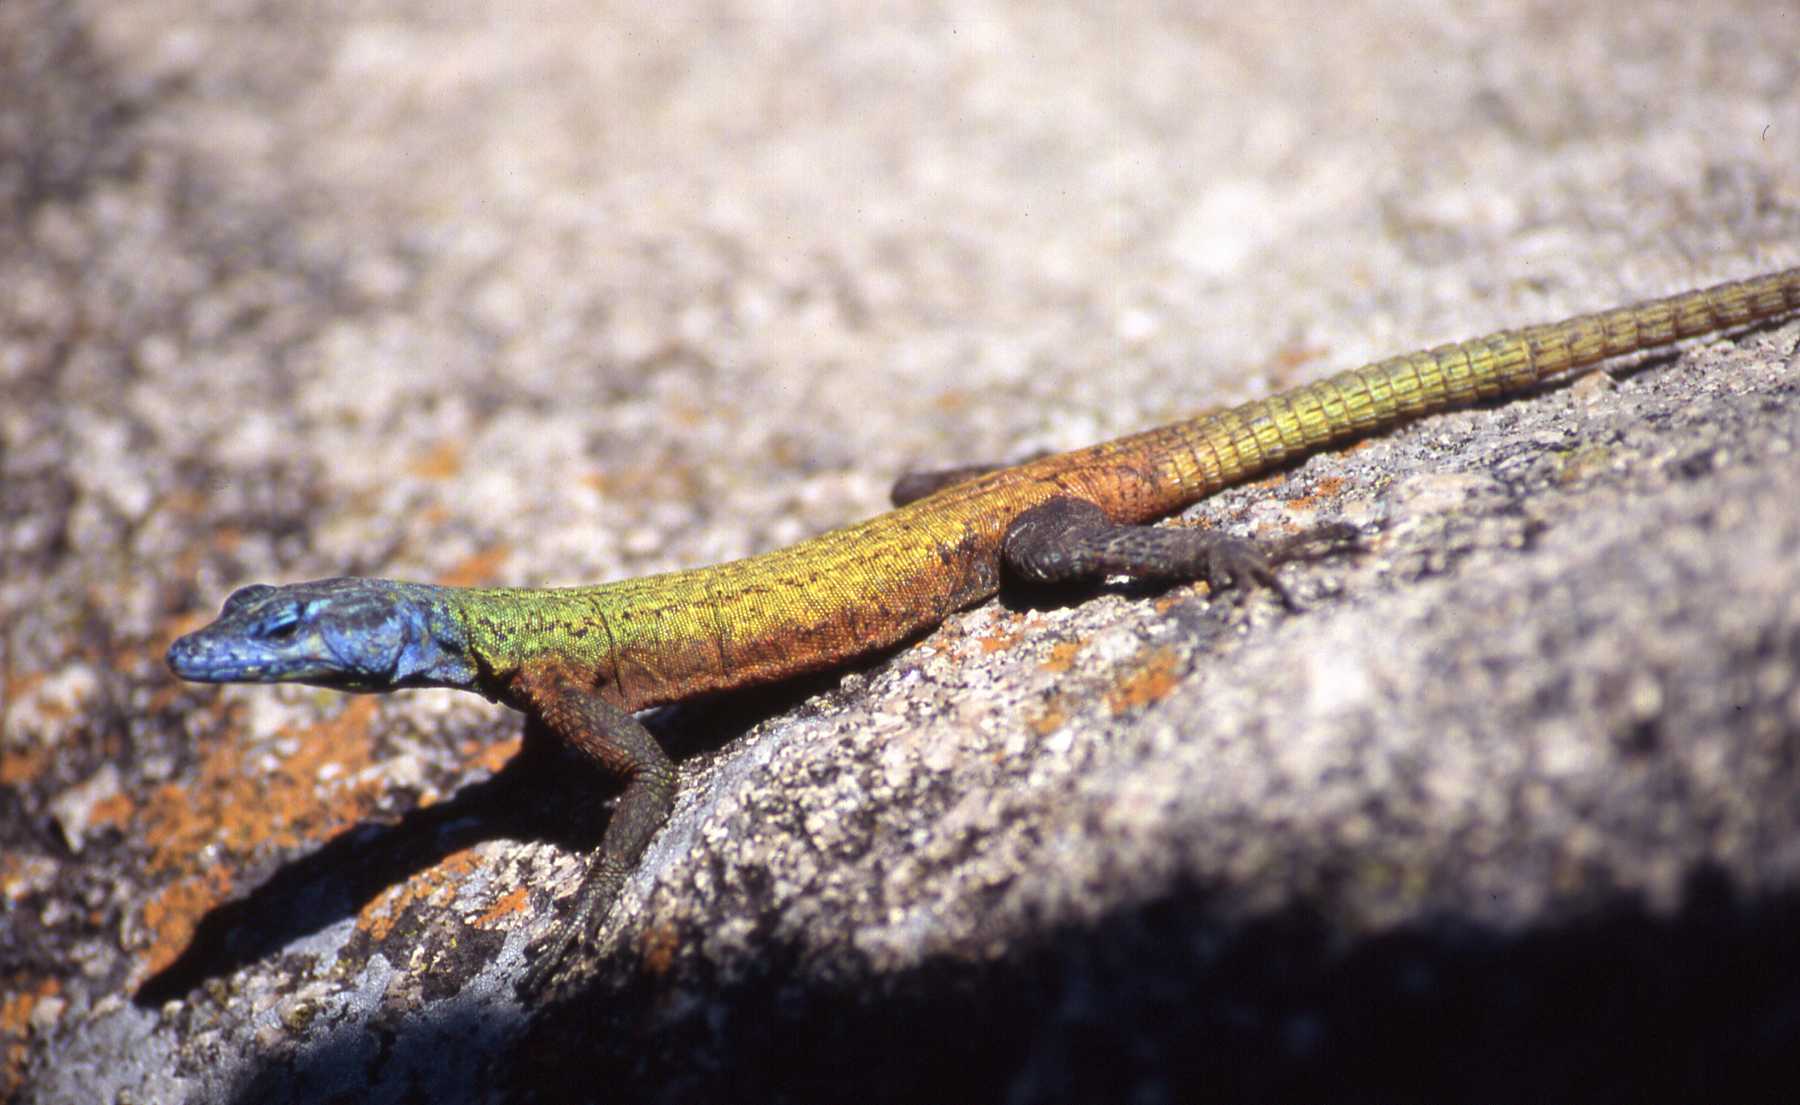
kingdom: Animalia
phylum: Chordata
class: Squamata
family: Cordylidae
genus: Platysaurus
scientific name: Platysaurus intermedius
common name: Common flat lizard
